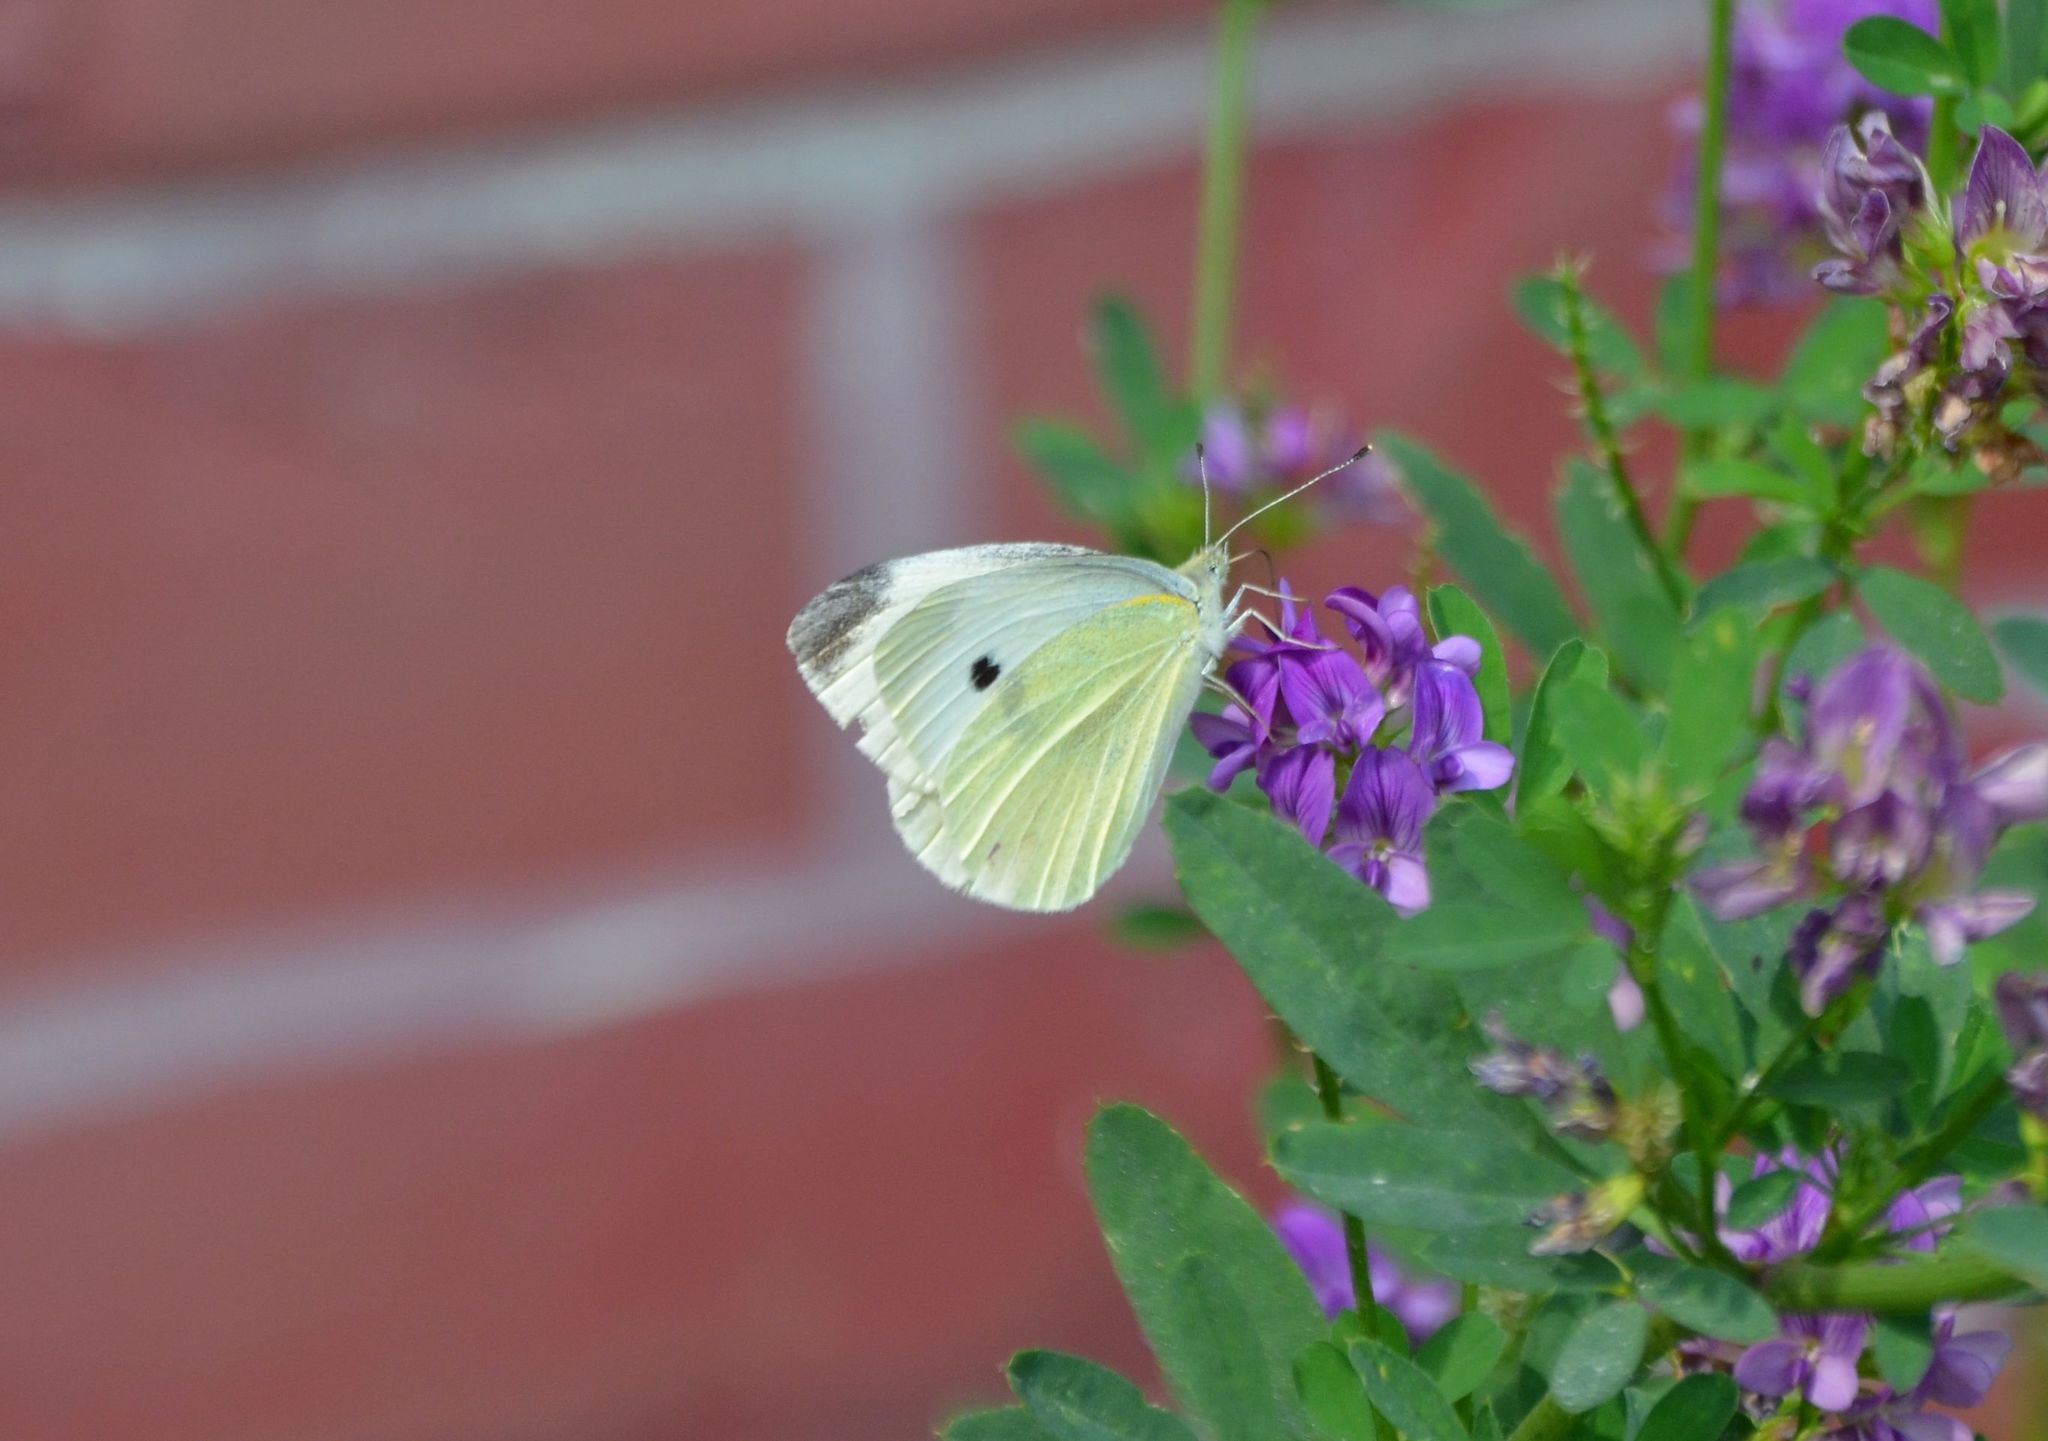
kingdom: Animalia
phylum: Arthropoda
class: Insecta
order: Lepidoptera
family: Pieridae
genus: Pieris
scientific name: Pieris rapae
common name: Small white
